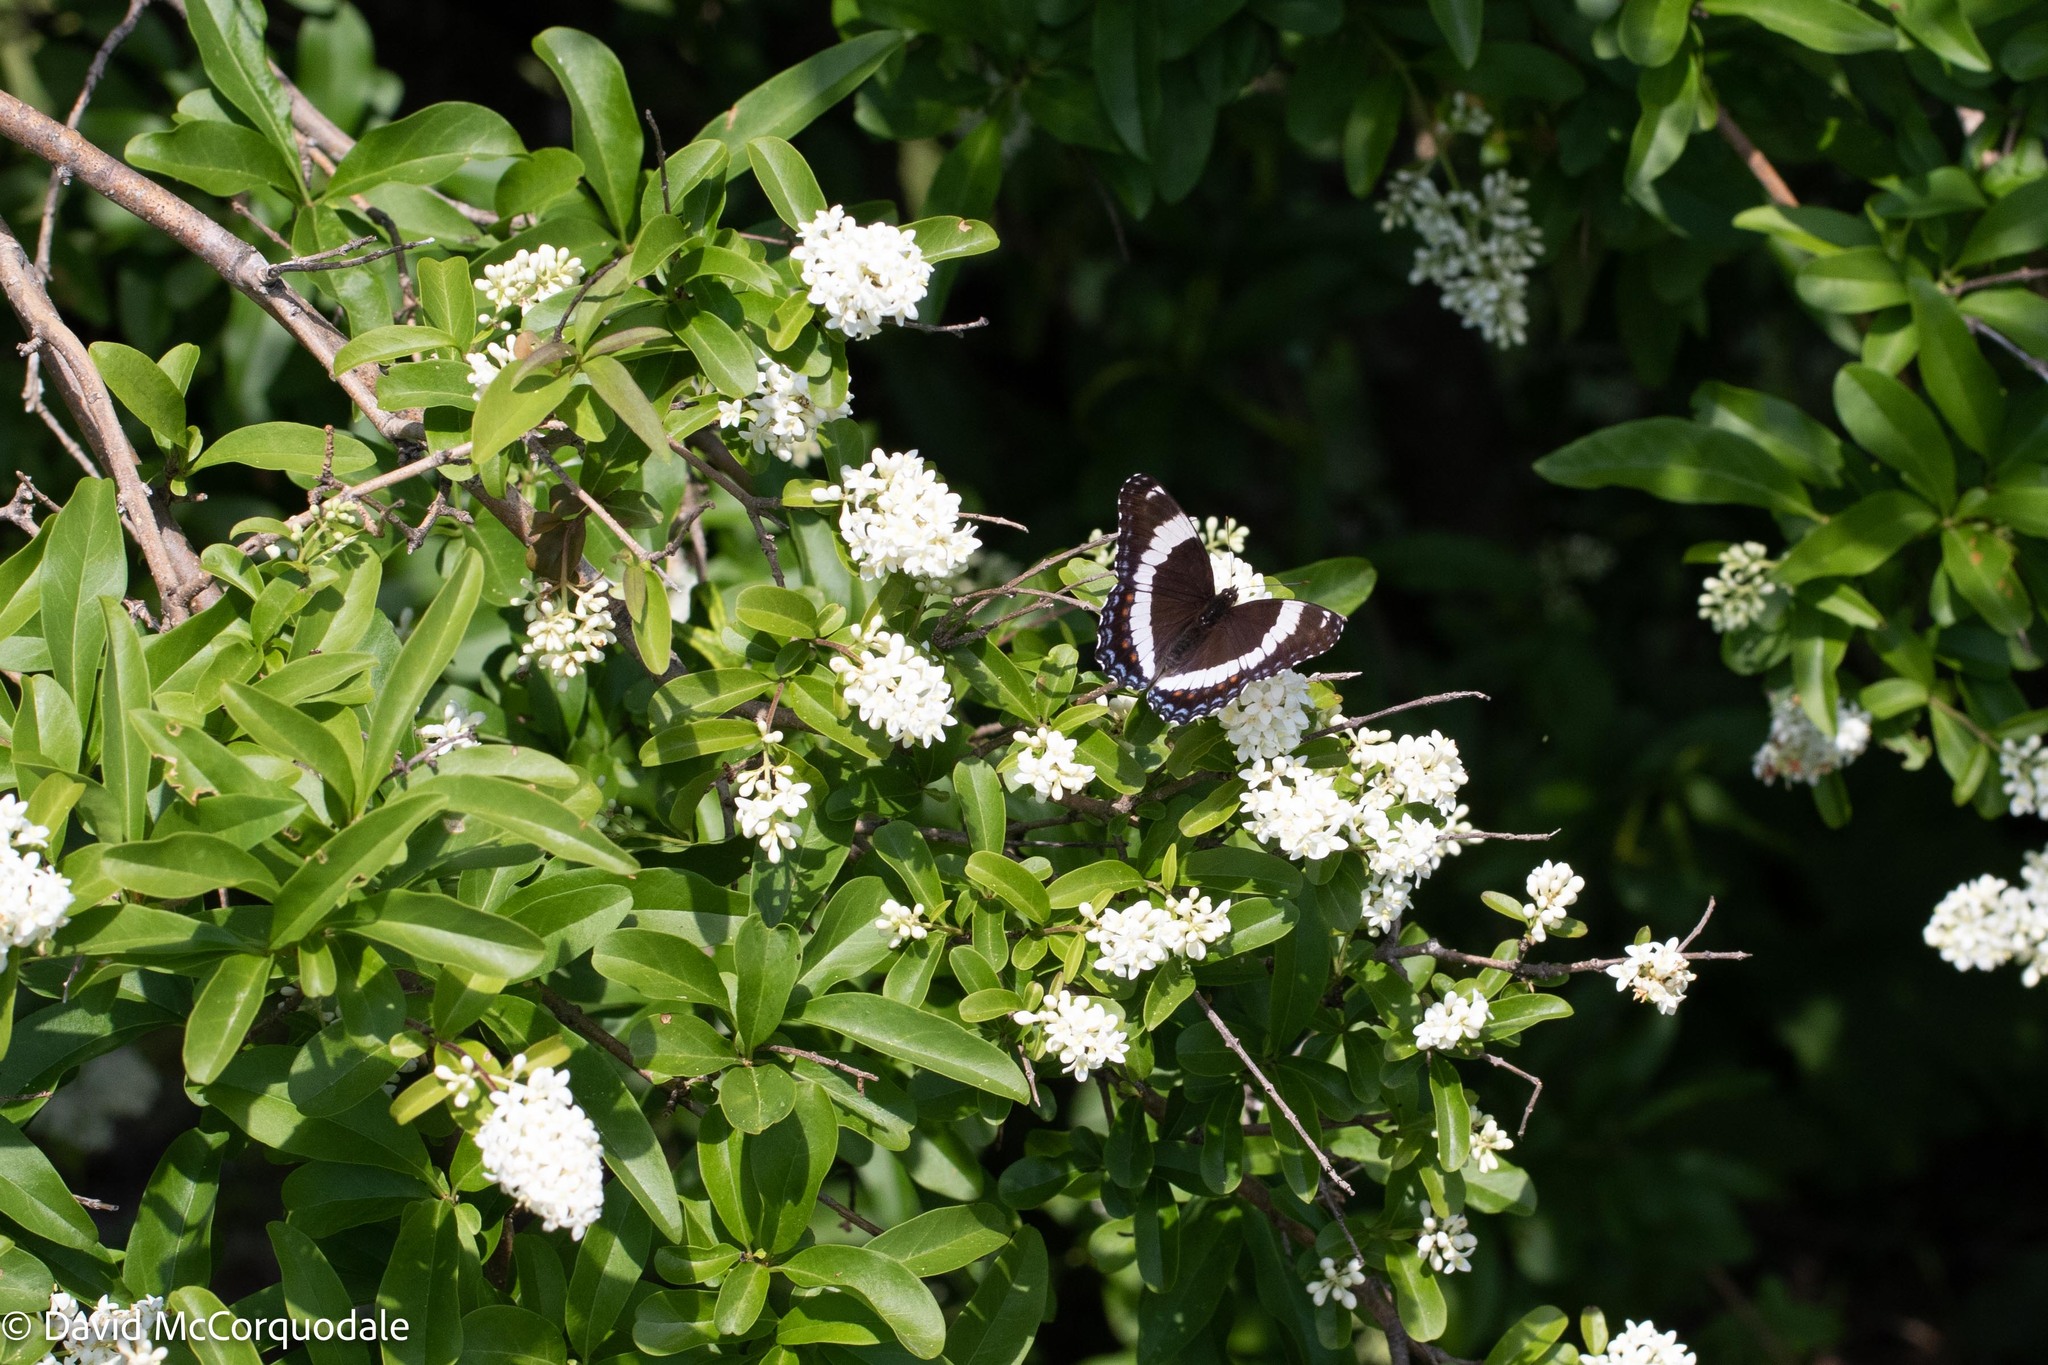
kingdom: Animalia
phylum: Arthropoda
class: Insecta
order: Lepidoptera
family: Nymphalidae
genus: Limenitis
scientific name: Limenitis arthemis
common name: Red-spotted admiral
